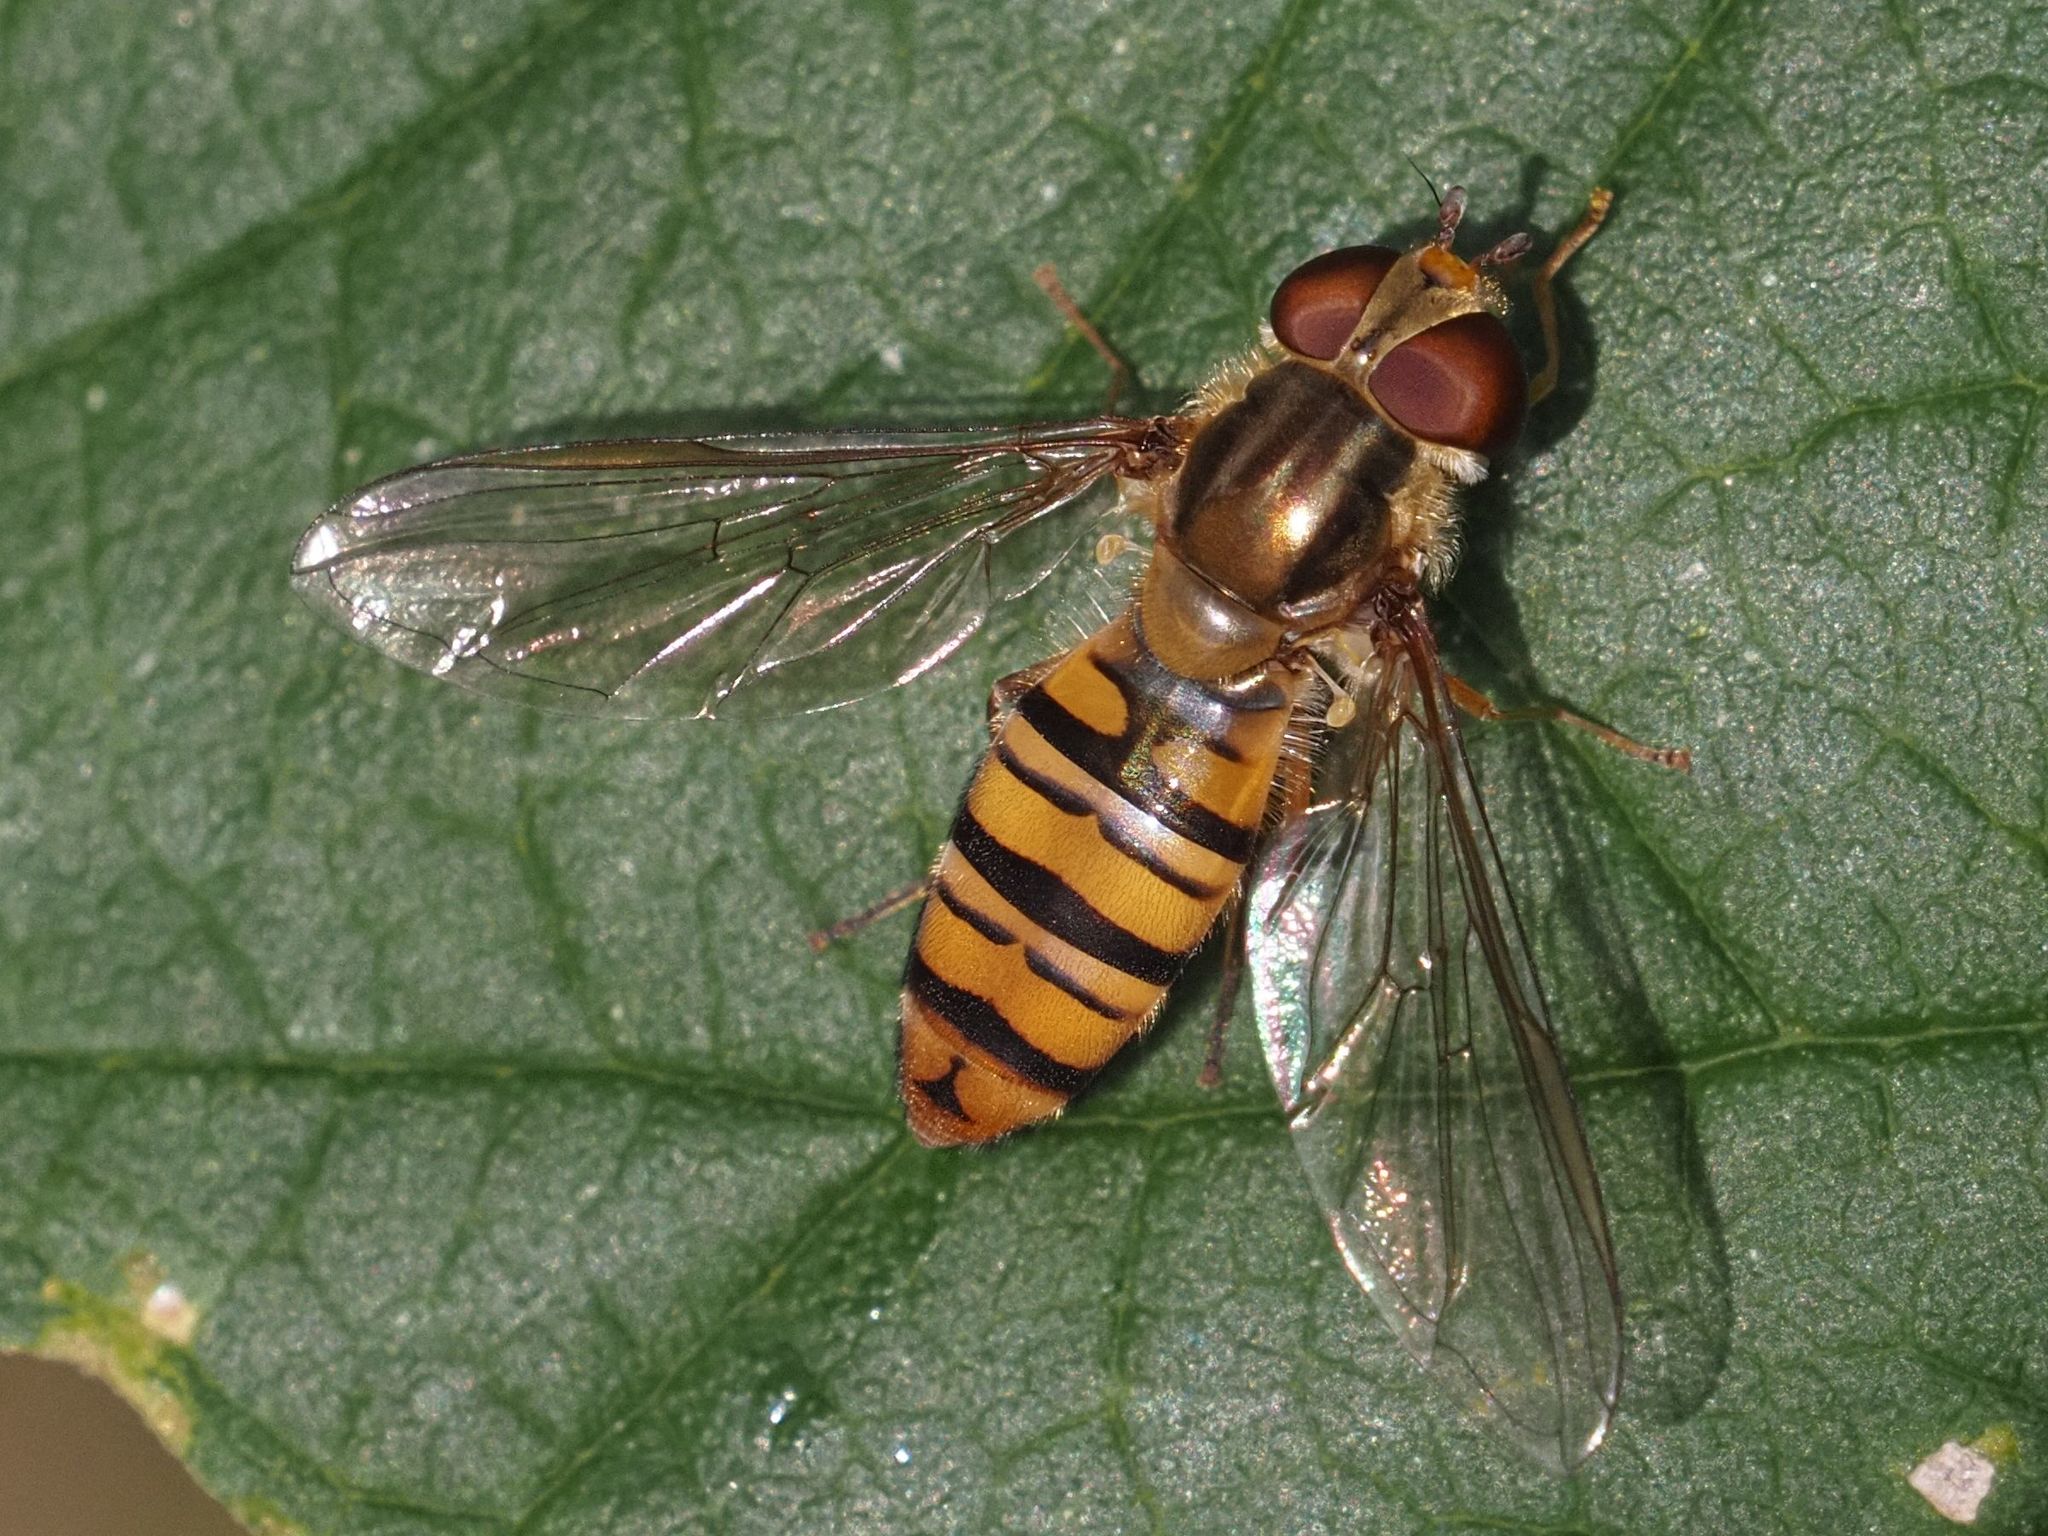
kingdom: Animalia
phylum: Arthropoda
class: Insecta
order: Diptera
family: Syrphidae
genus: Episyrphus
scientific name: Episyrphus balteatus
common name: Marmalade hoverfly
